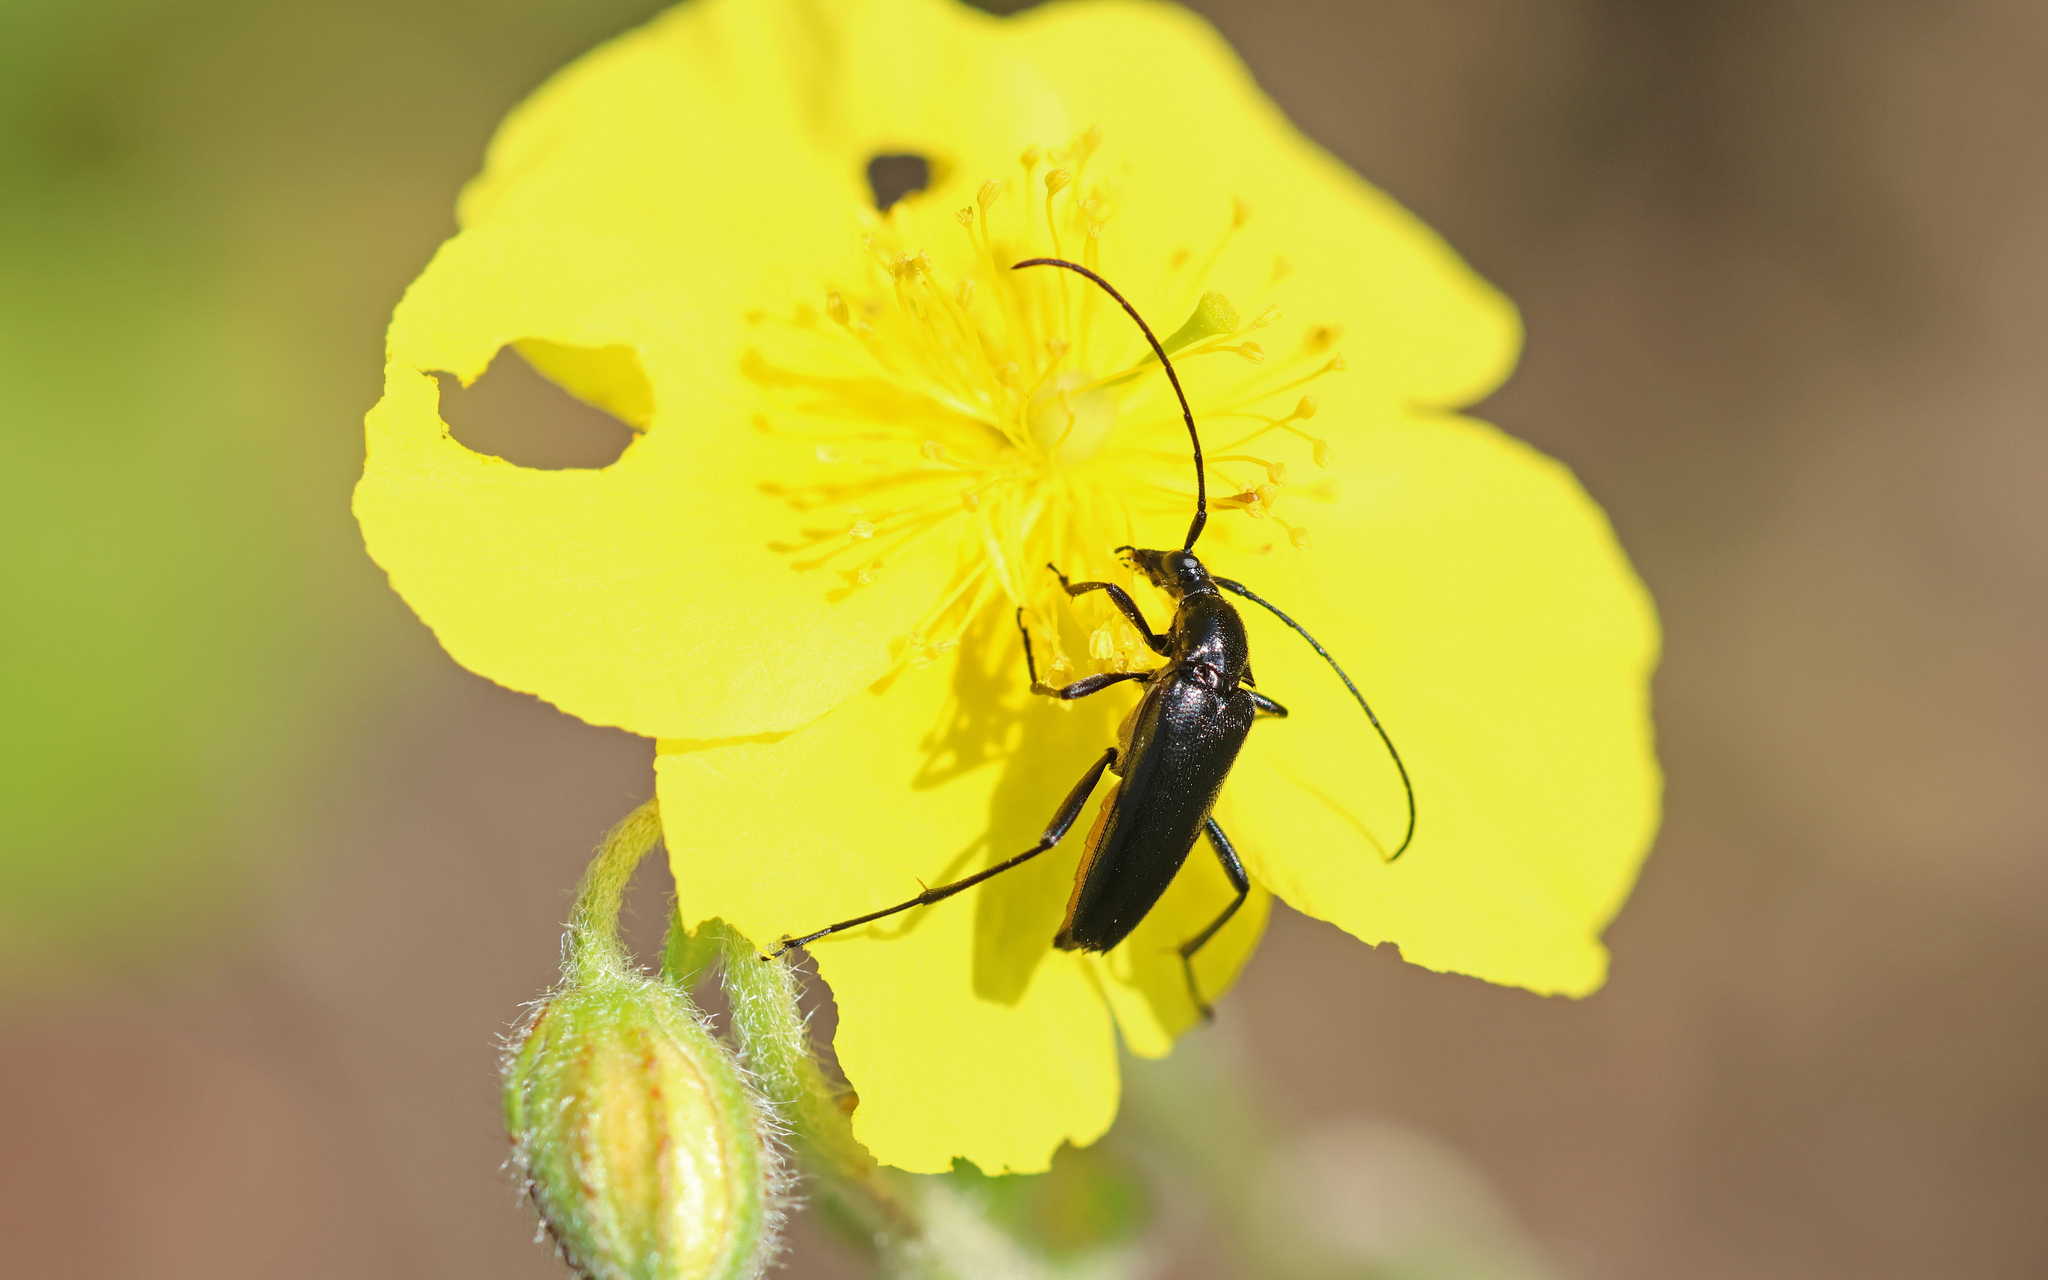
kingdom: Animalia
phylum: Arthropoda
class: Insecta
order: Coleoptera
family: Cerambycidae
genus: Stenurella
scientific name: Stenurella nigra
